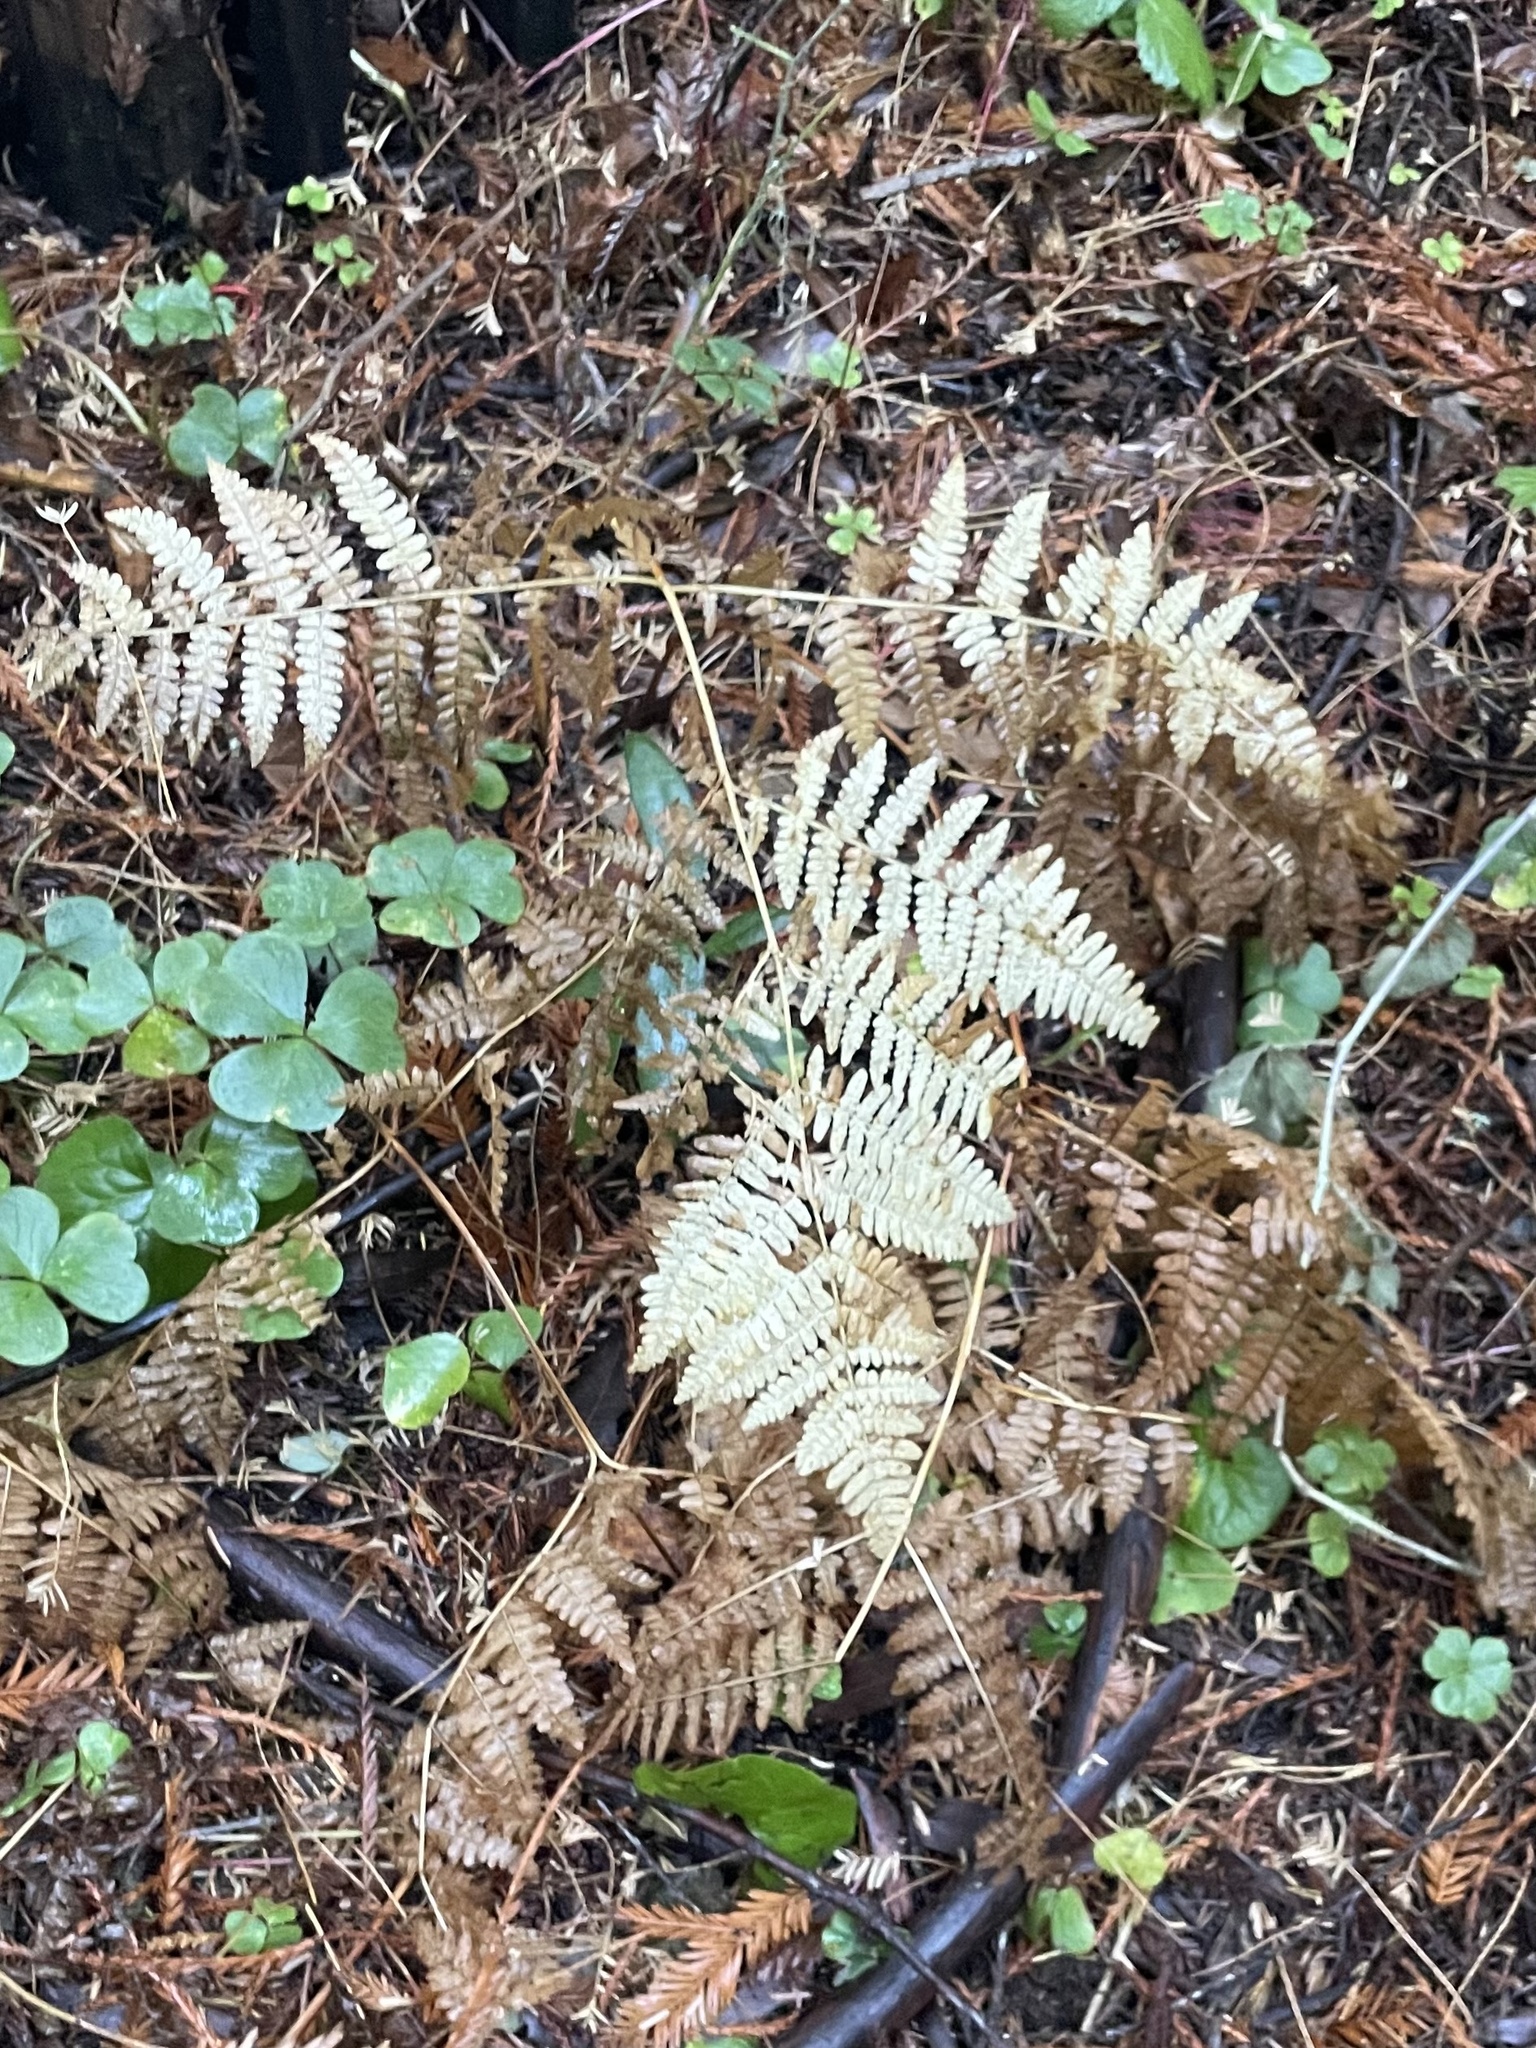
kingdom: Plantae
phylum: Tracheophyta
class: Polypodiopsida
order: Polypodiales
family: Dennstaedtiaceae
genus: Pteridium
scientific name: Pteridium aquilinum
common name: Bracken
